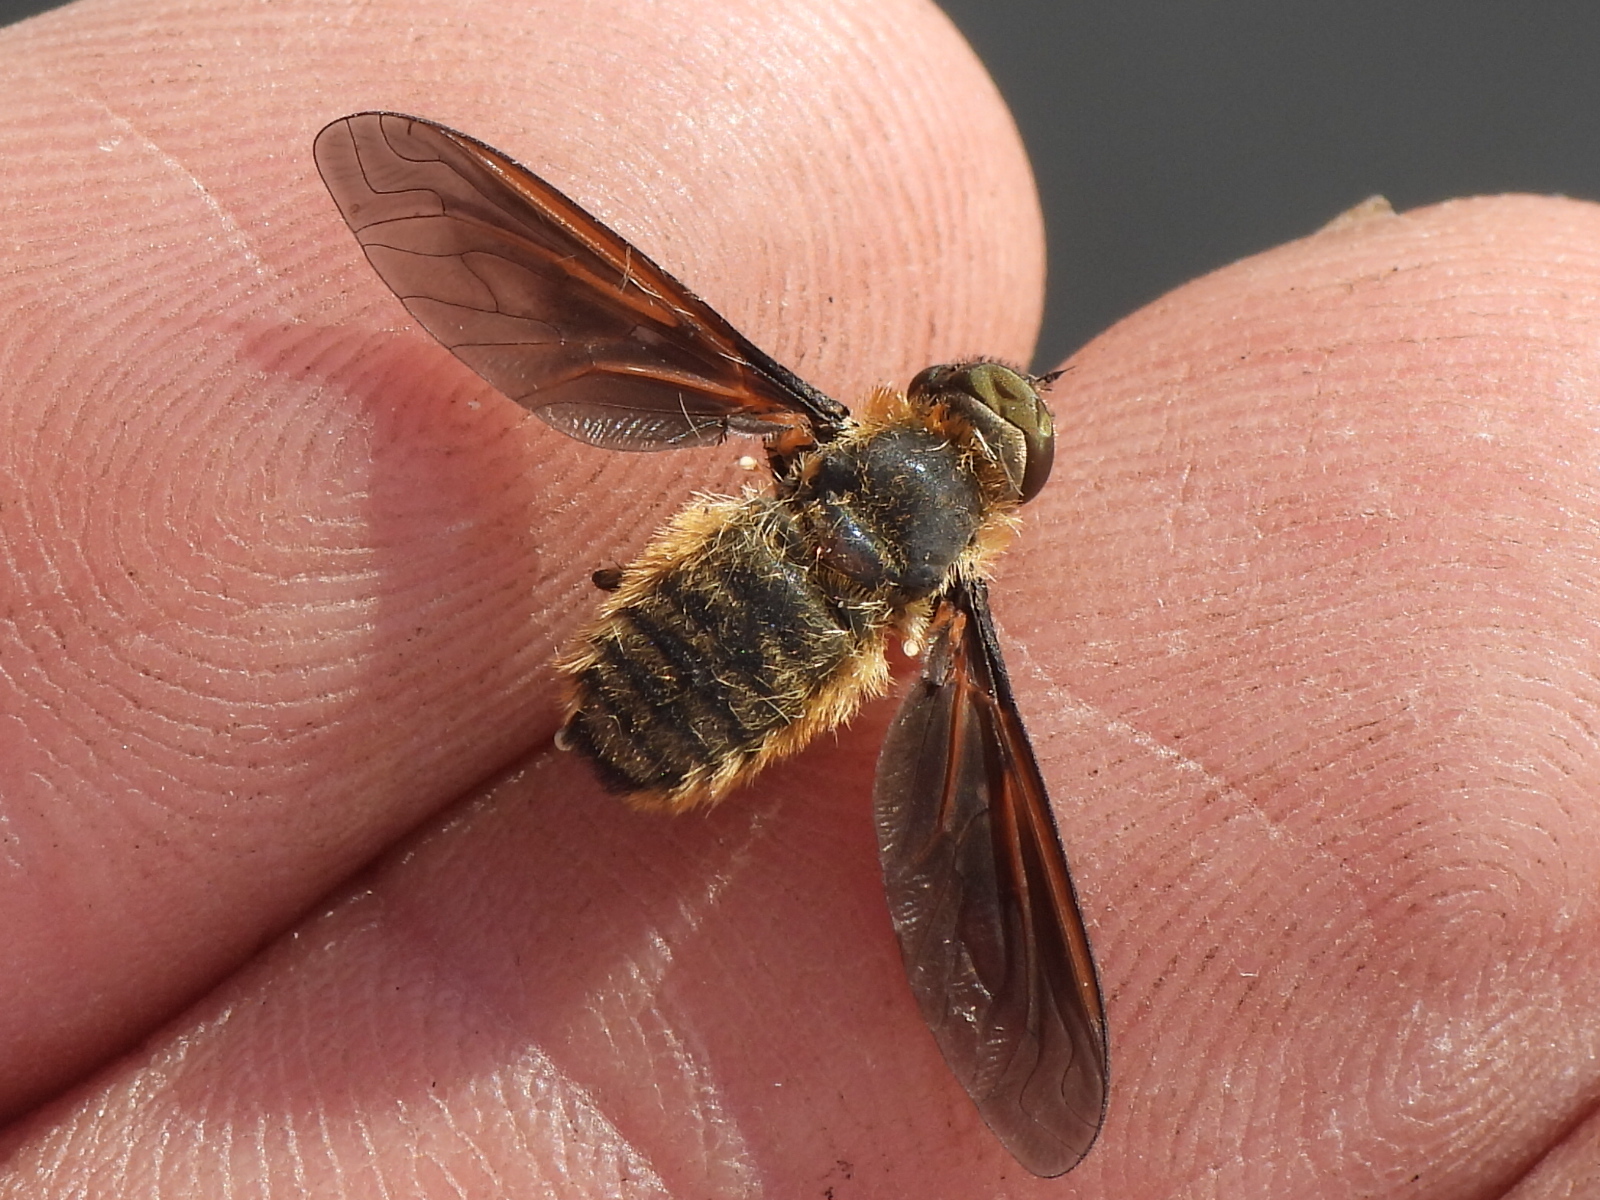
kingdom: Animalia
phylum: Arthropoda
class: Insecta
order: Diptera
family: Bombyliidae
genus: Poecilanthrax
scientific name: Poecilanthrax lucifer
